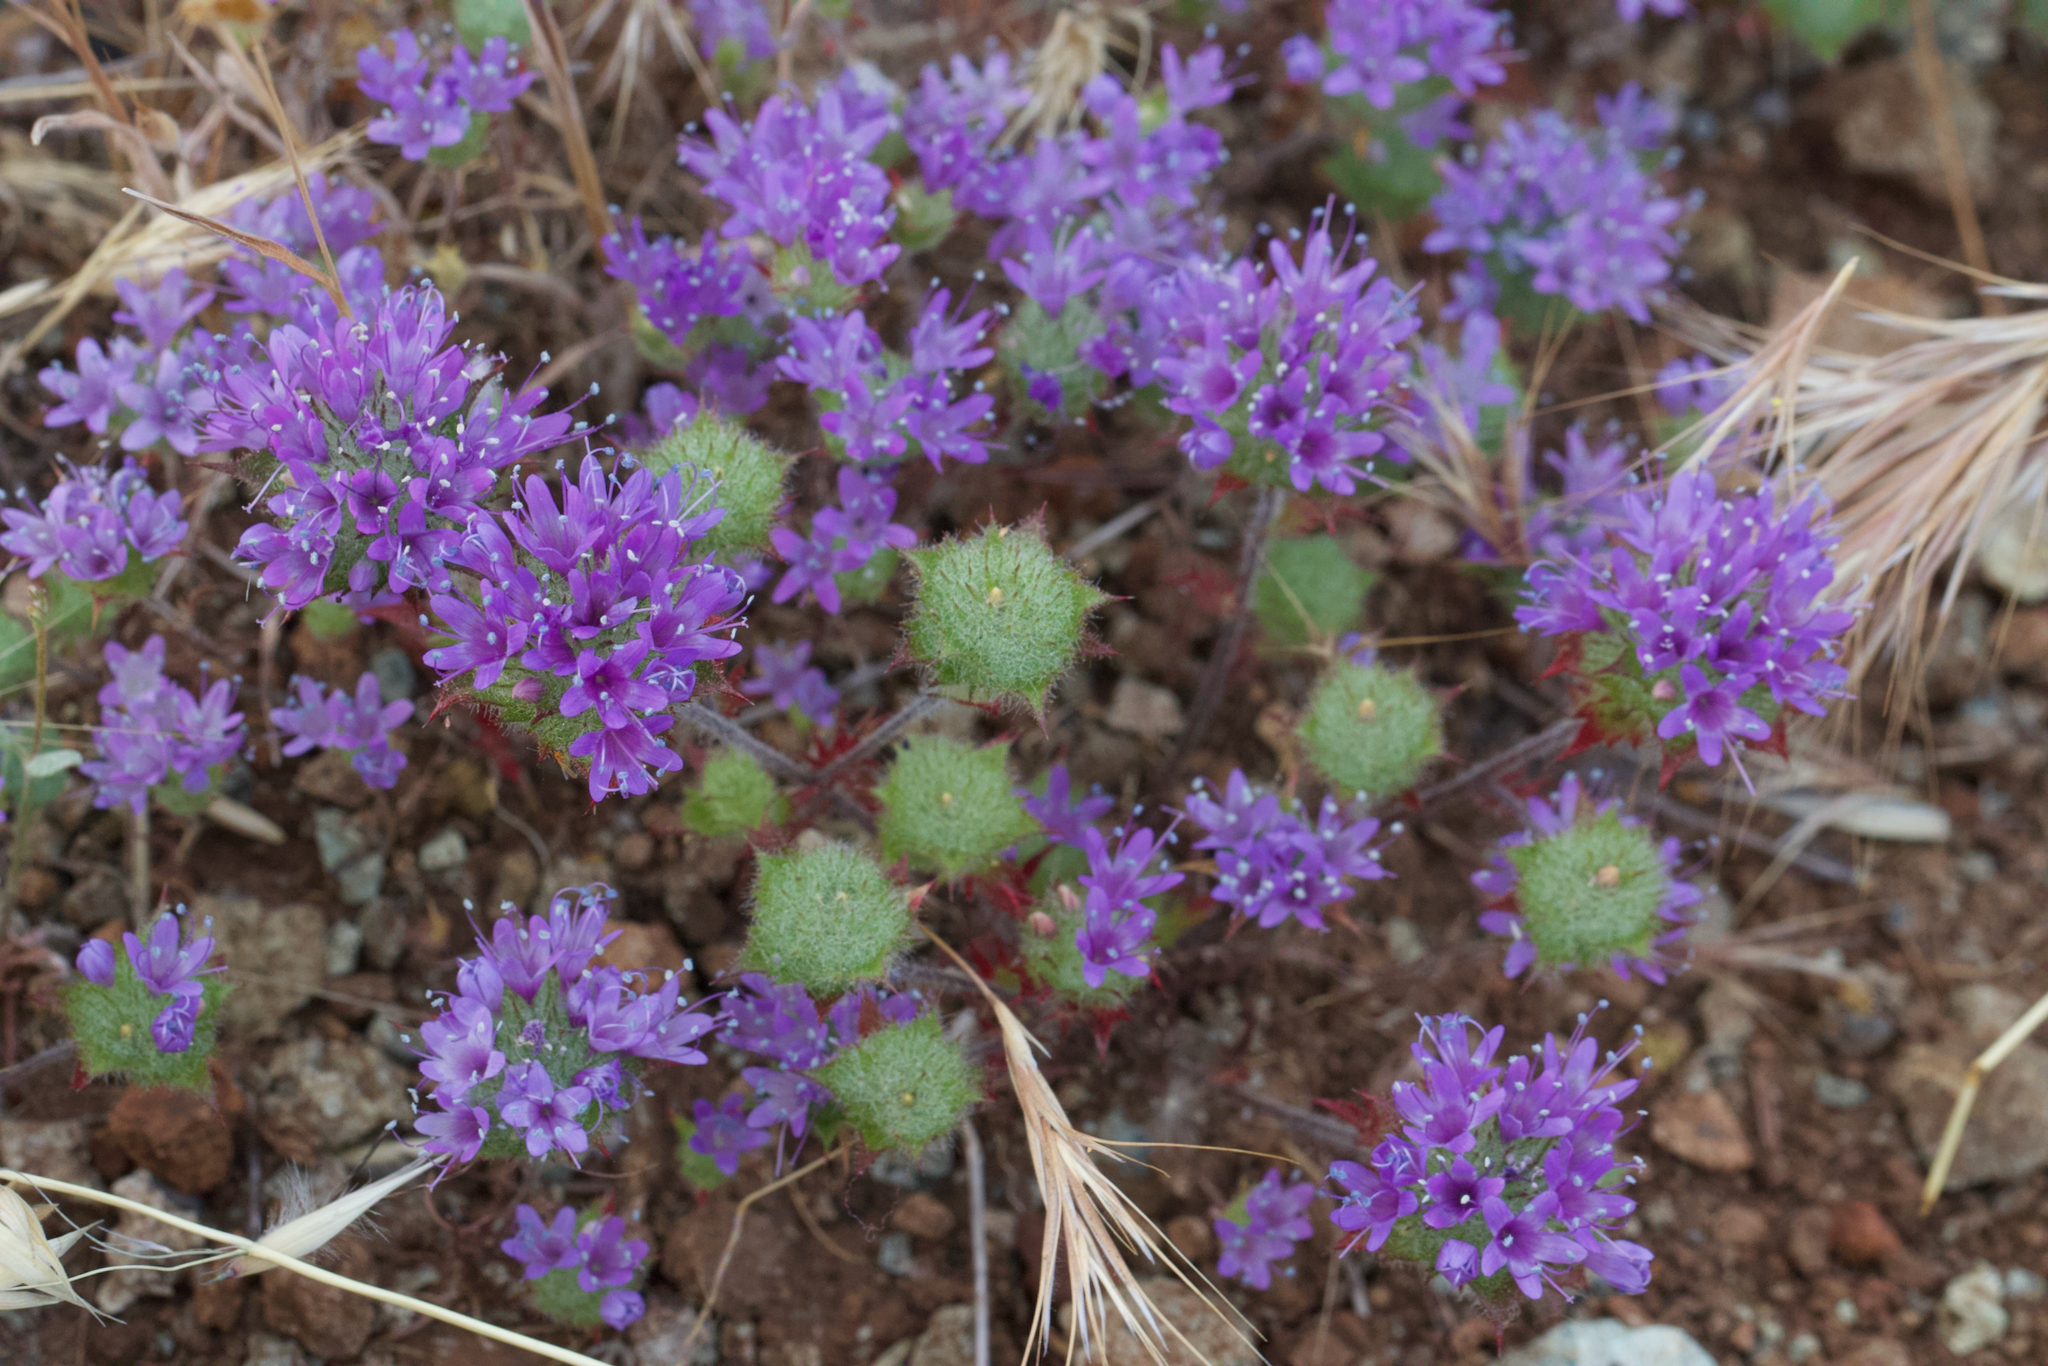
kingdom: Plantae
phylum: Tracheophyta
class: Magnoliopsida
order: Ericales
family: Polemoniaceae
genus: Navarretia
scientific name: Navarretia heterodoxa
